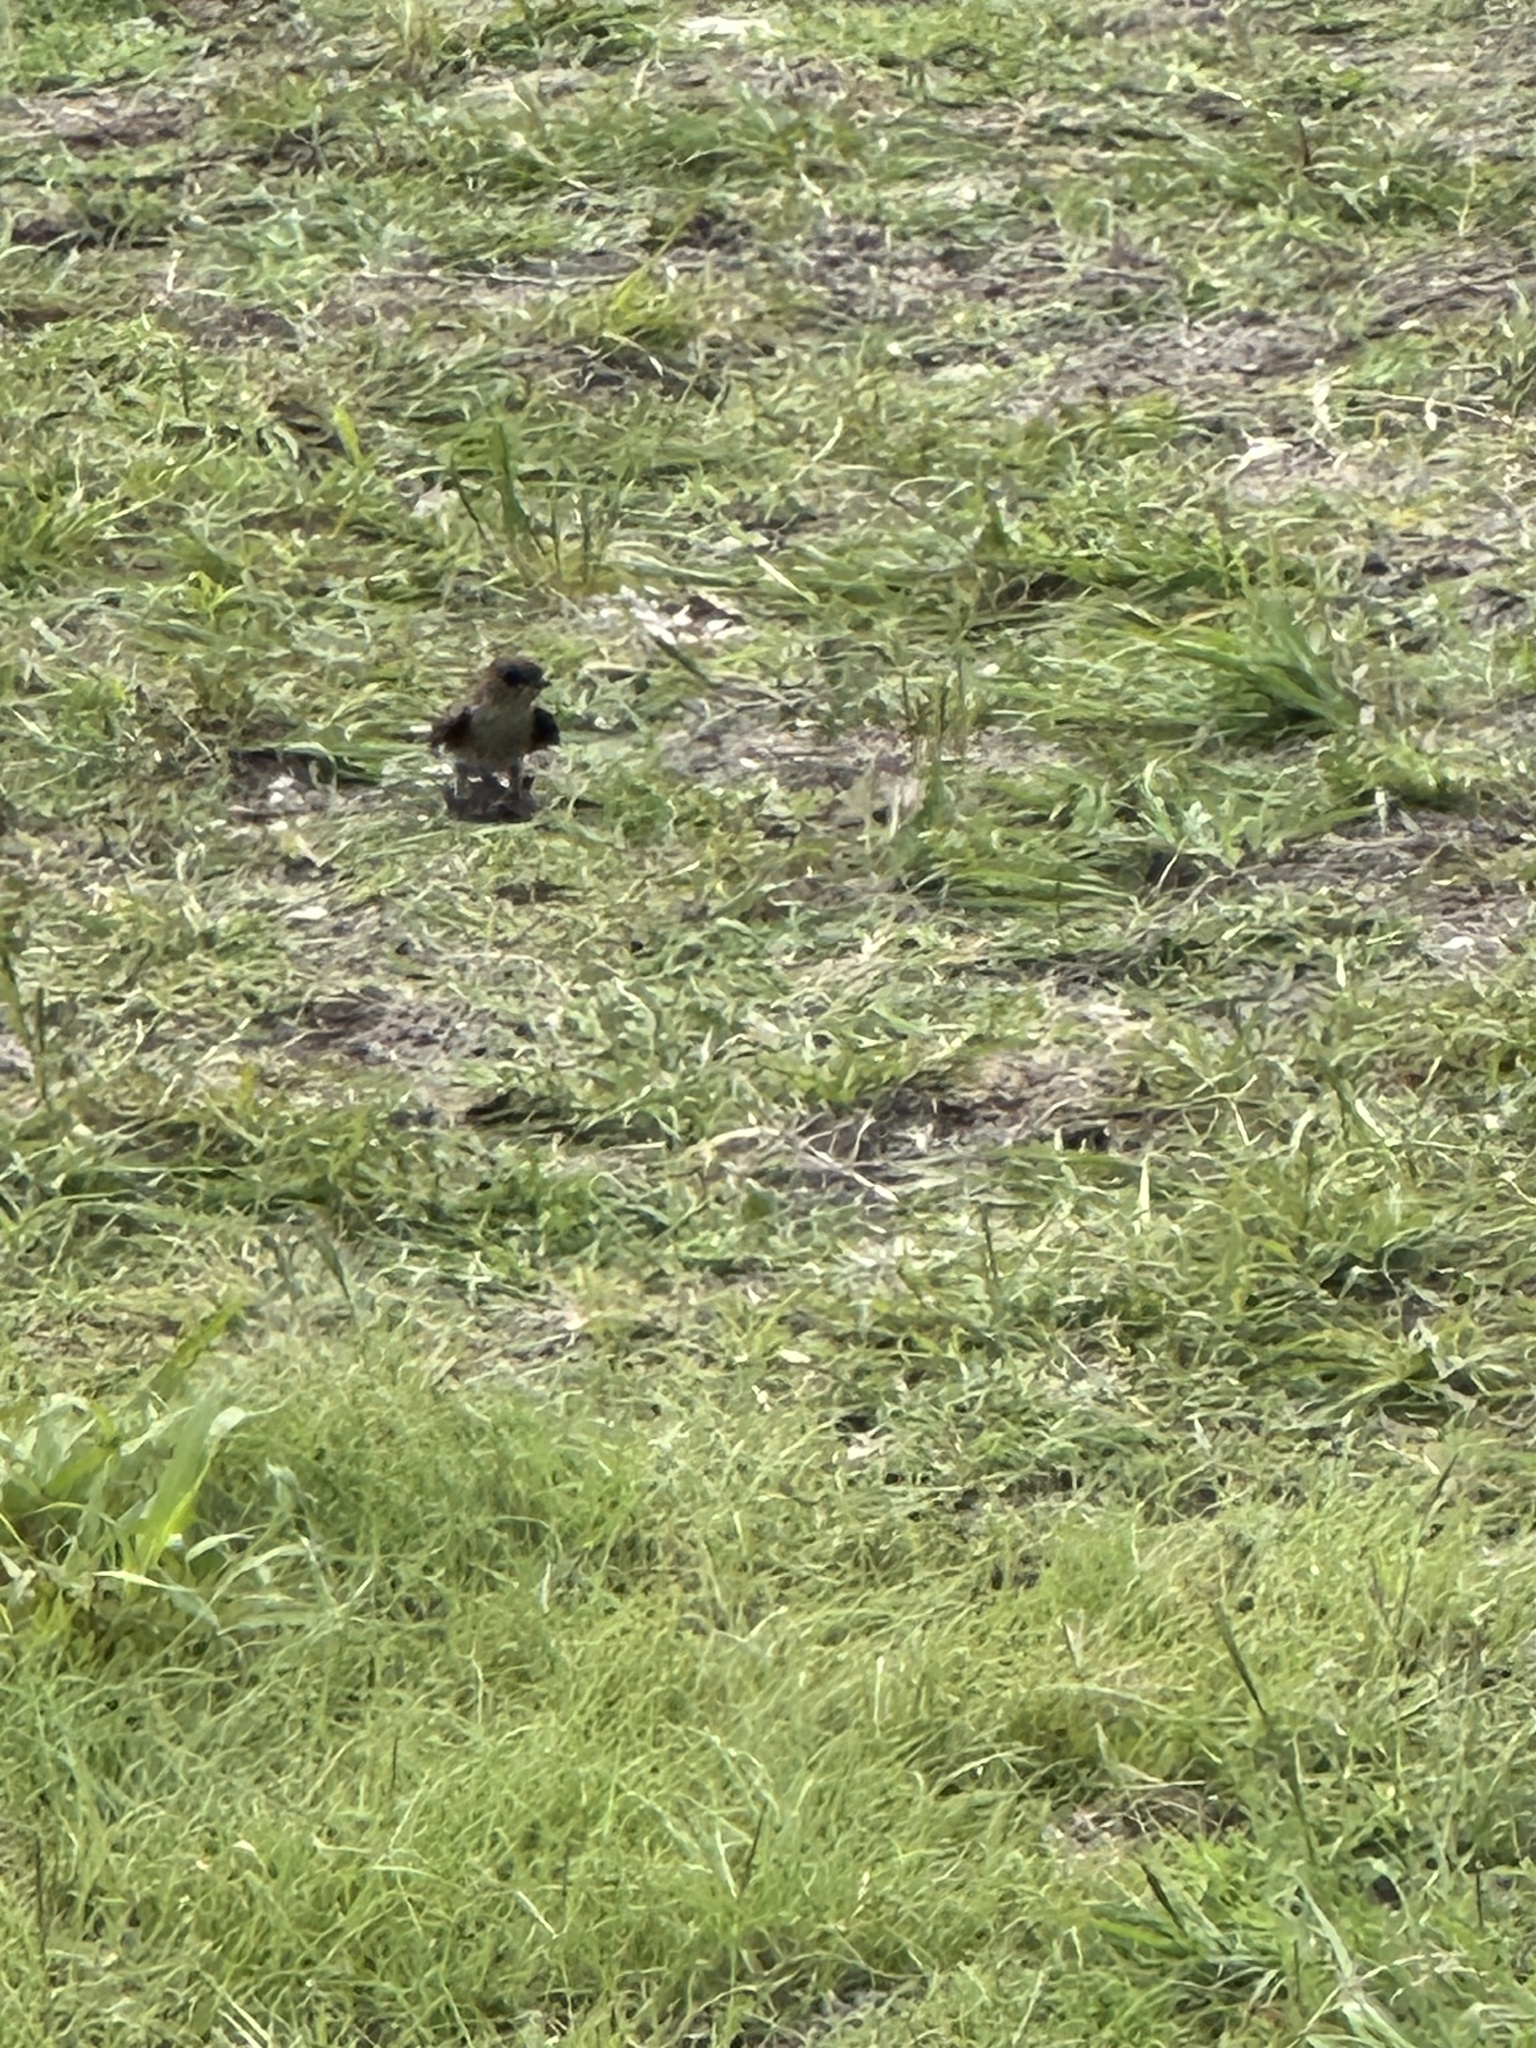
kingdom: Animalia
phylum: Chordata
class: Aves
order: Passeriformes
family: Hirundinidae
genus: Stelgidopteryx
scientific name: Stelgidopteryx serripennis
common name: Northern rough-winged swallow
